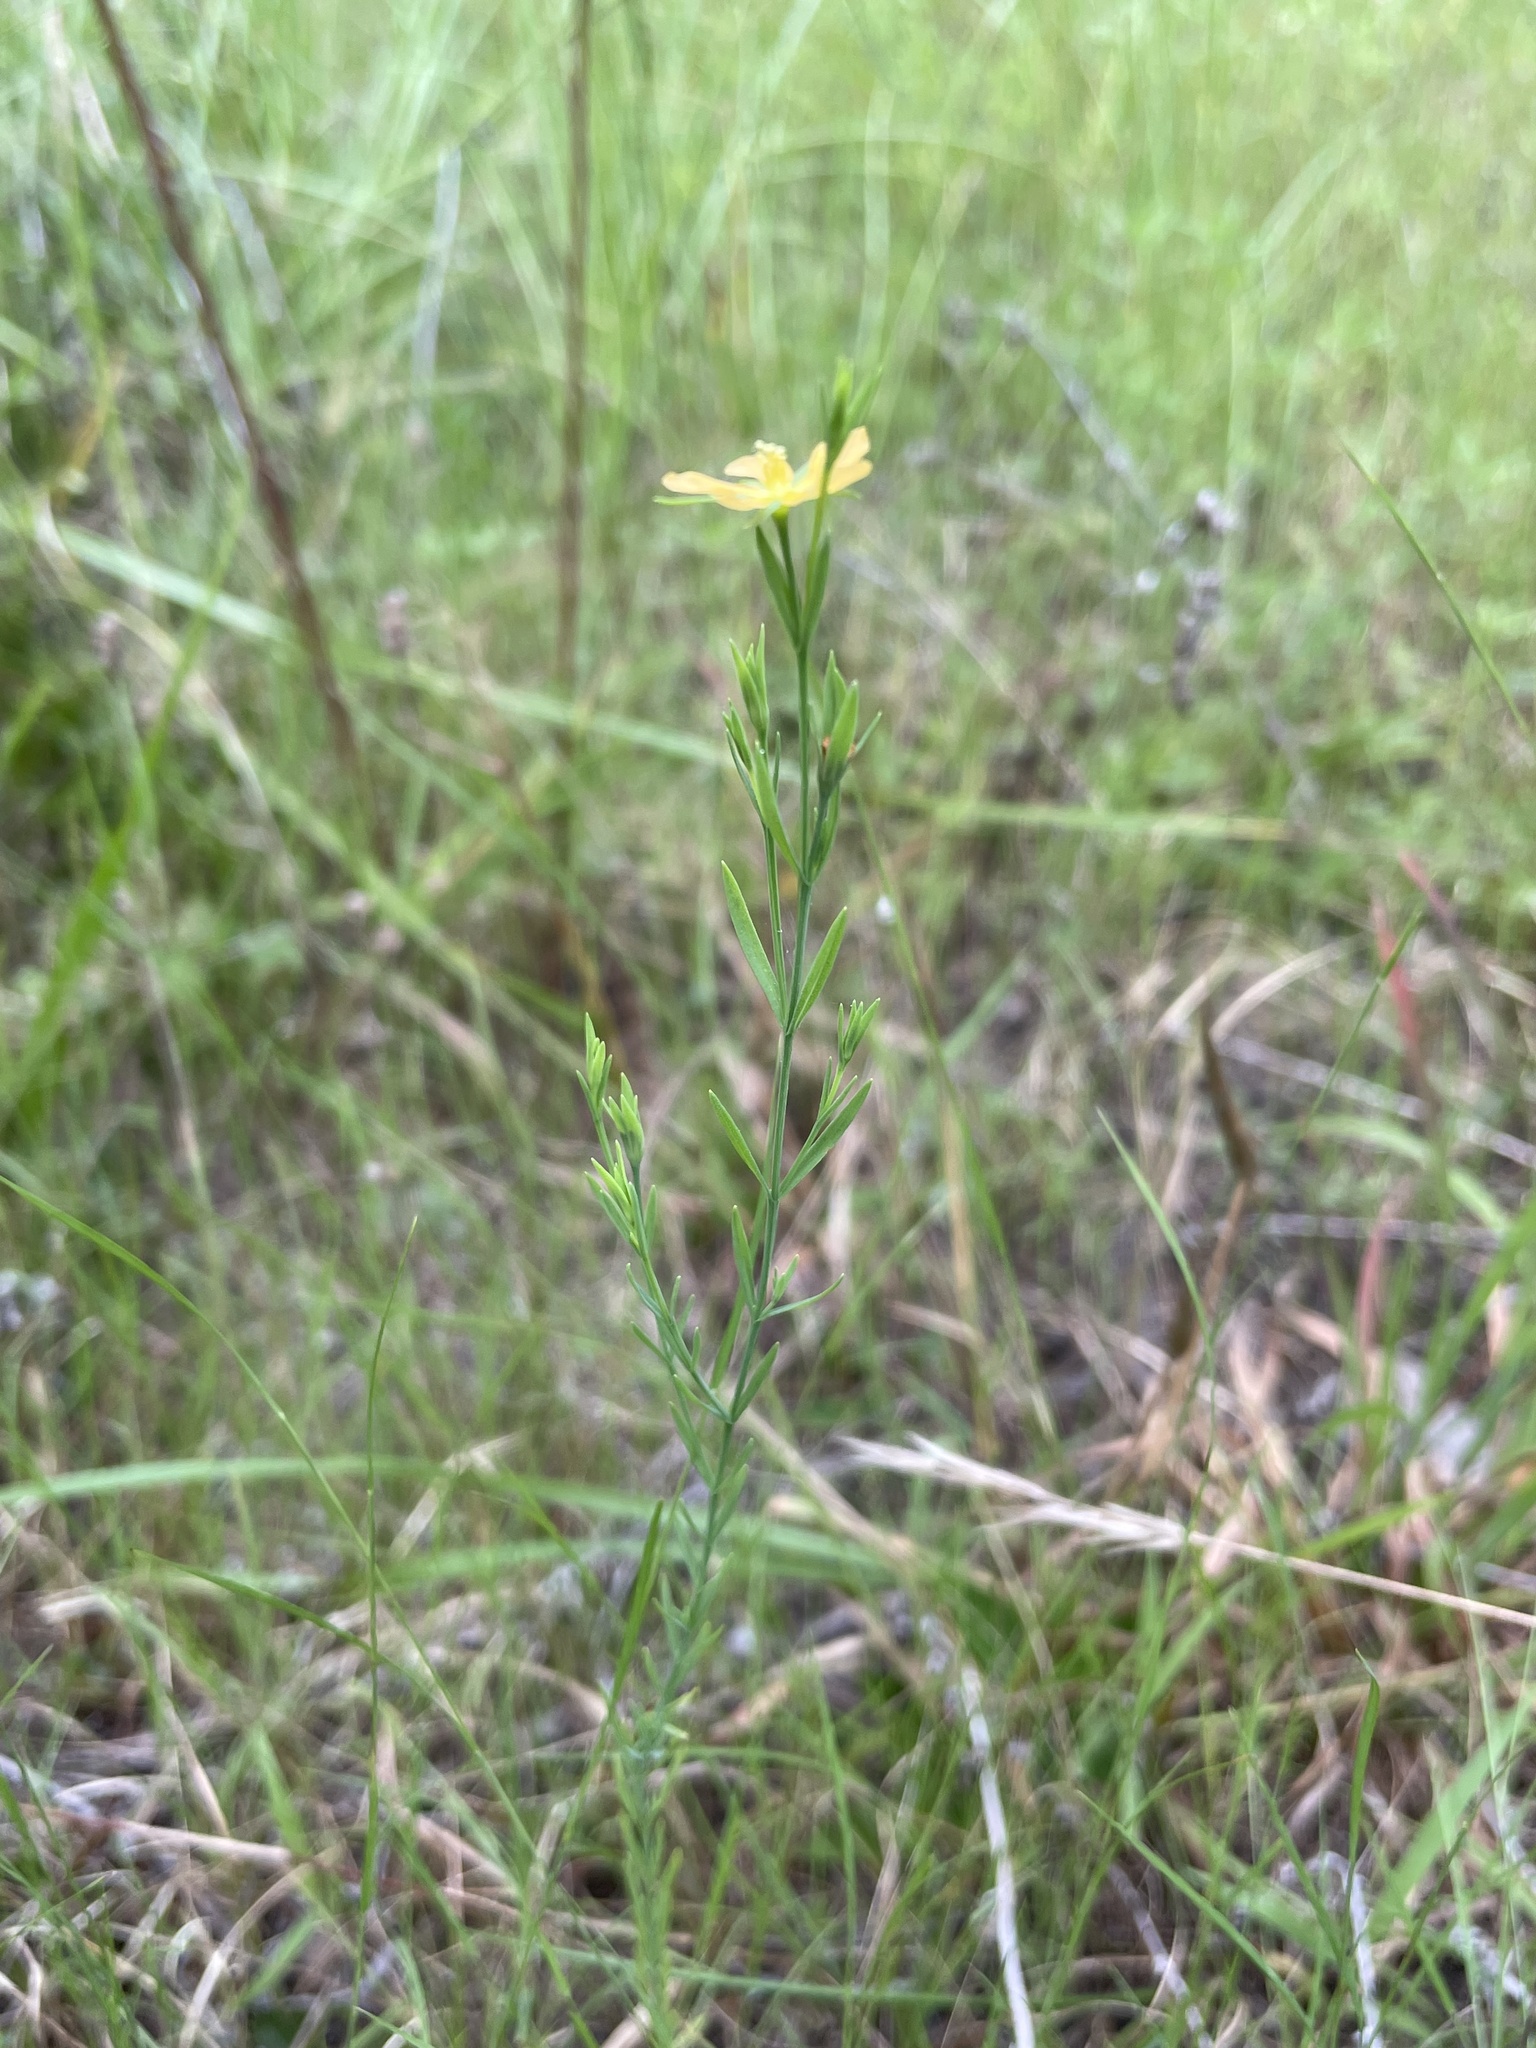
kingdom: Plantae
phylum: Tracheophyta
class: Magnoliopsida
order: Malpighiales
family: Hypericaceae
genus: Hypericum
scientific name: Hypericum drummondii
